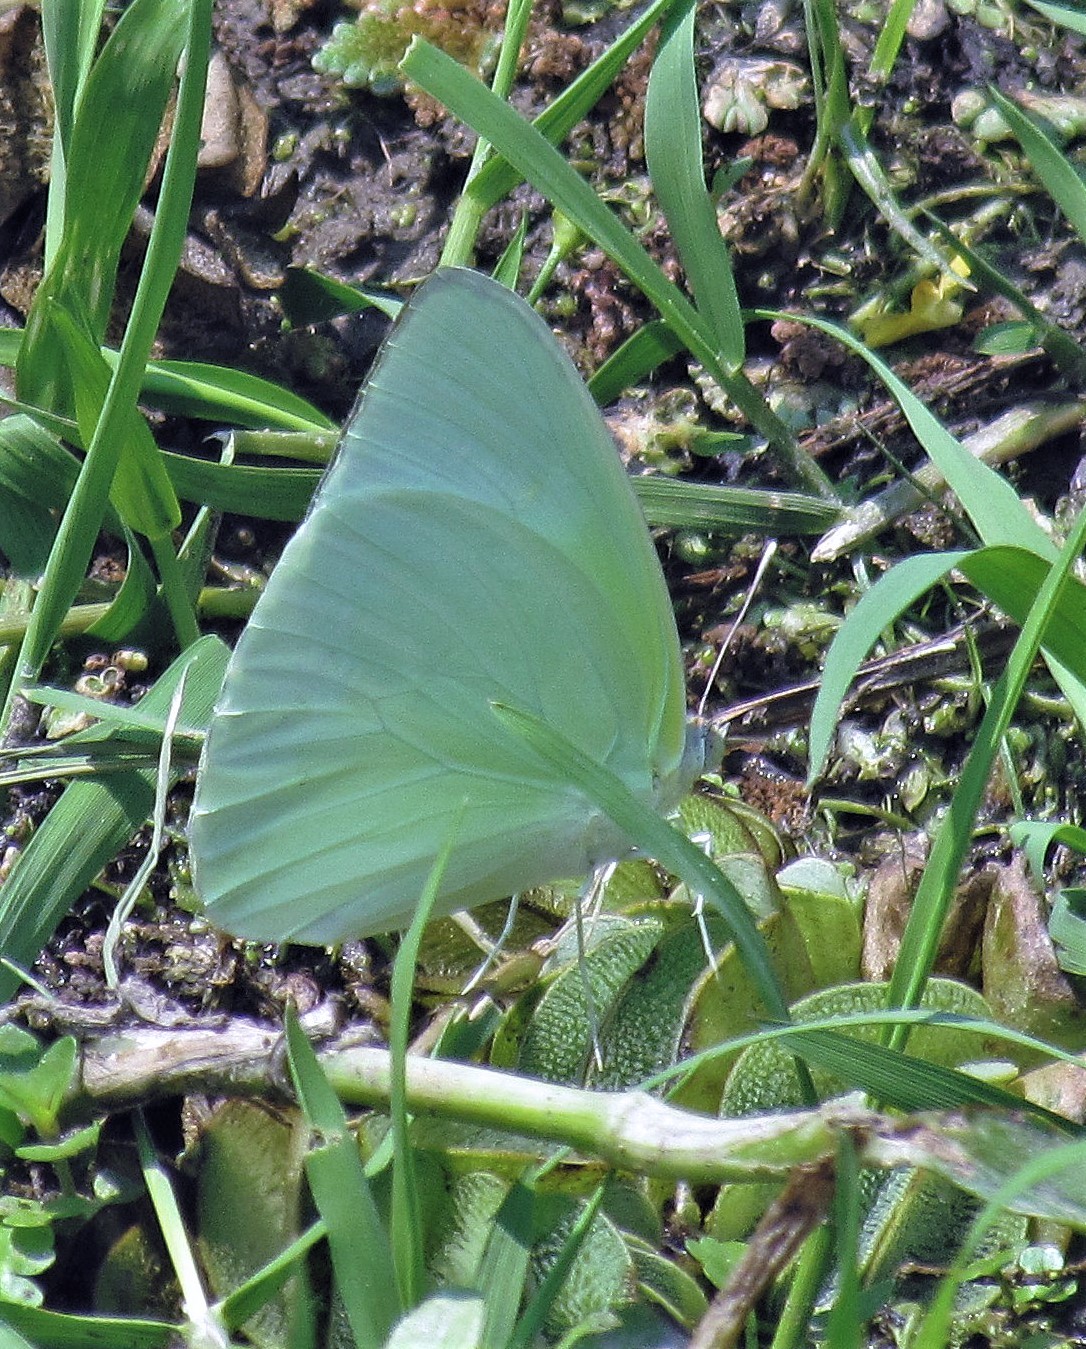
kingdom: Animalia
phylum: Arthropoda
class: Insecta
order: Lepidoptera
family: Pieridae
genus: Aphrissa
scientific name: Aphrissa statira
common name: Statira sulphur
